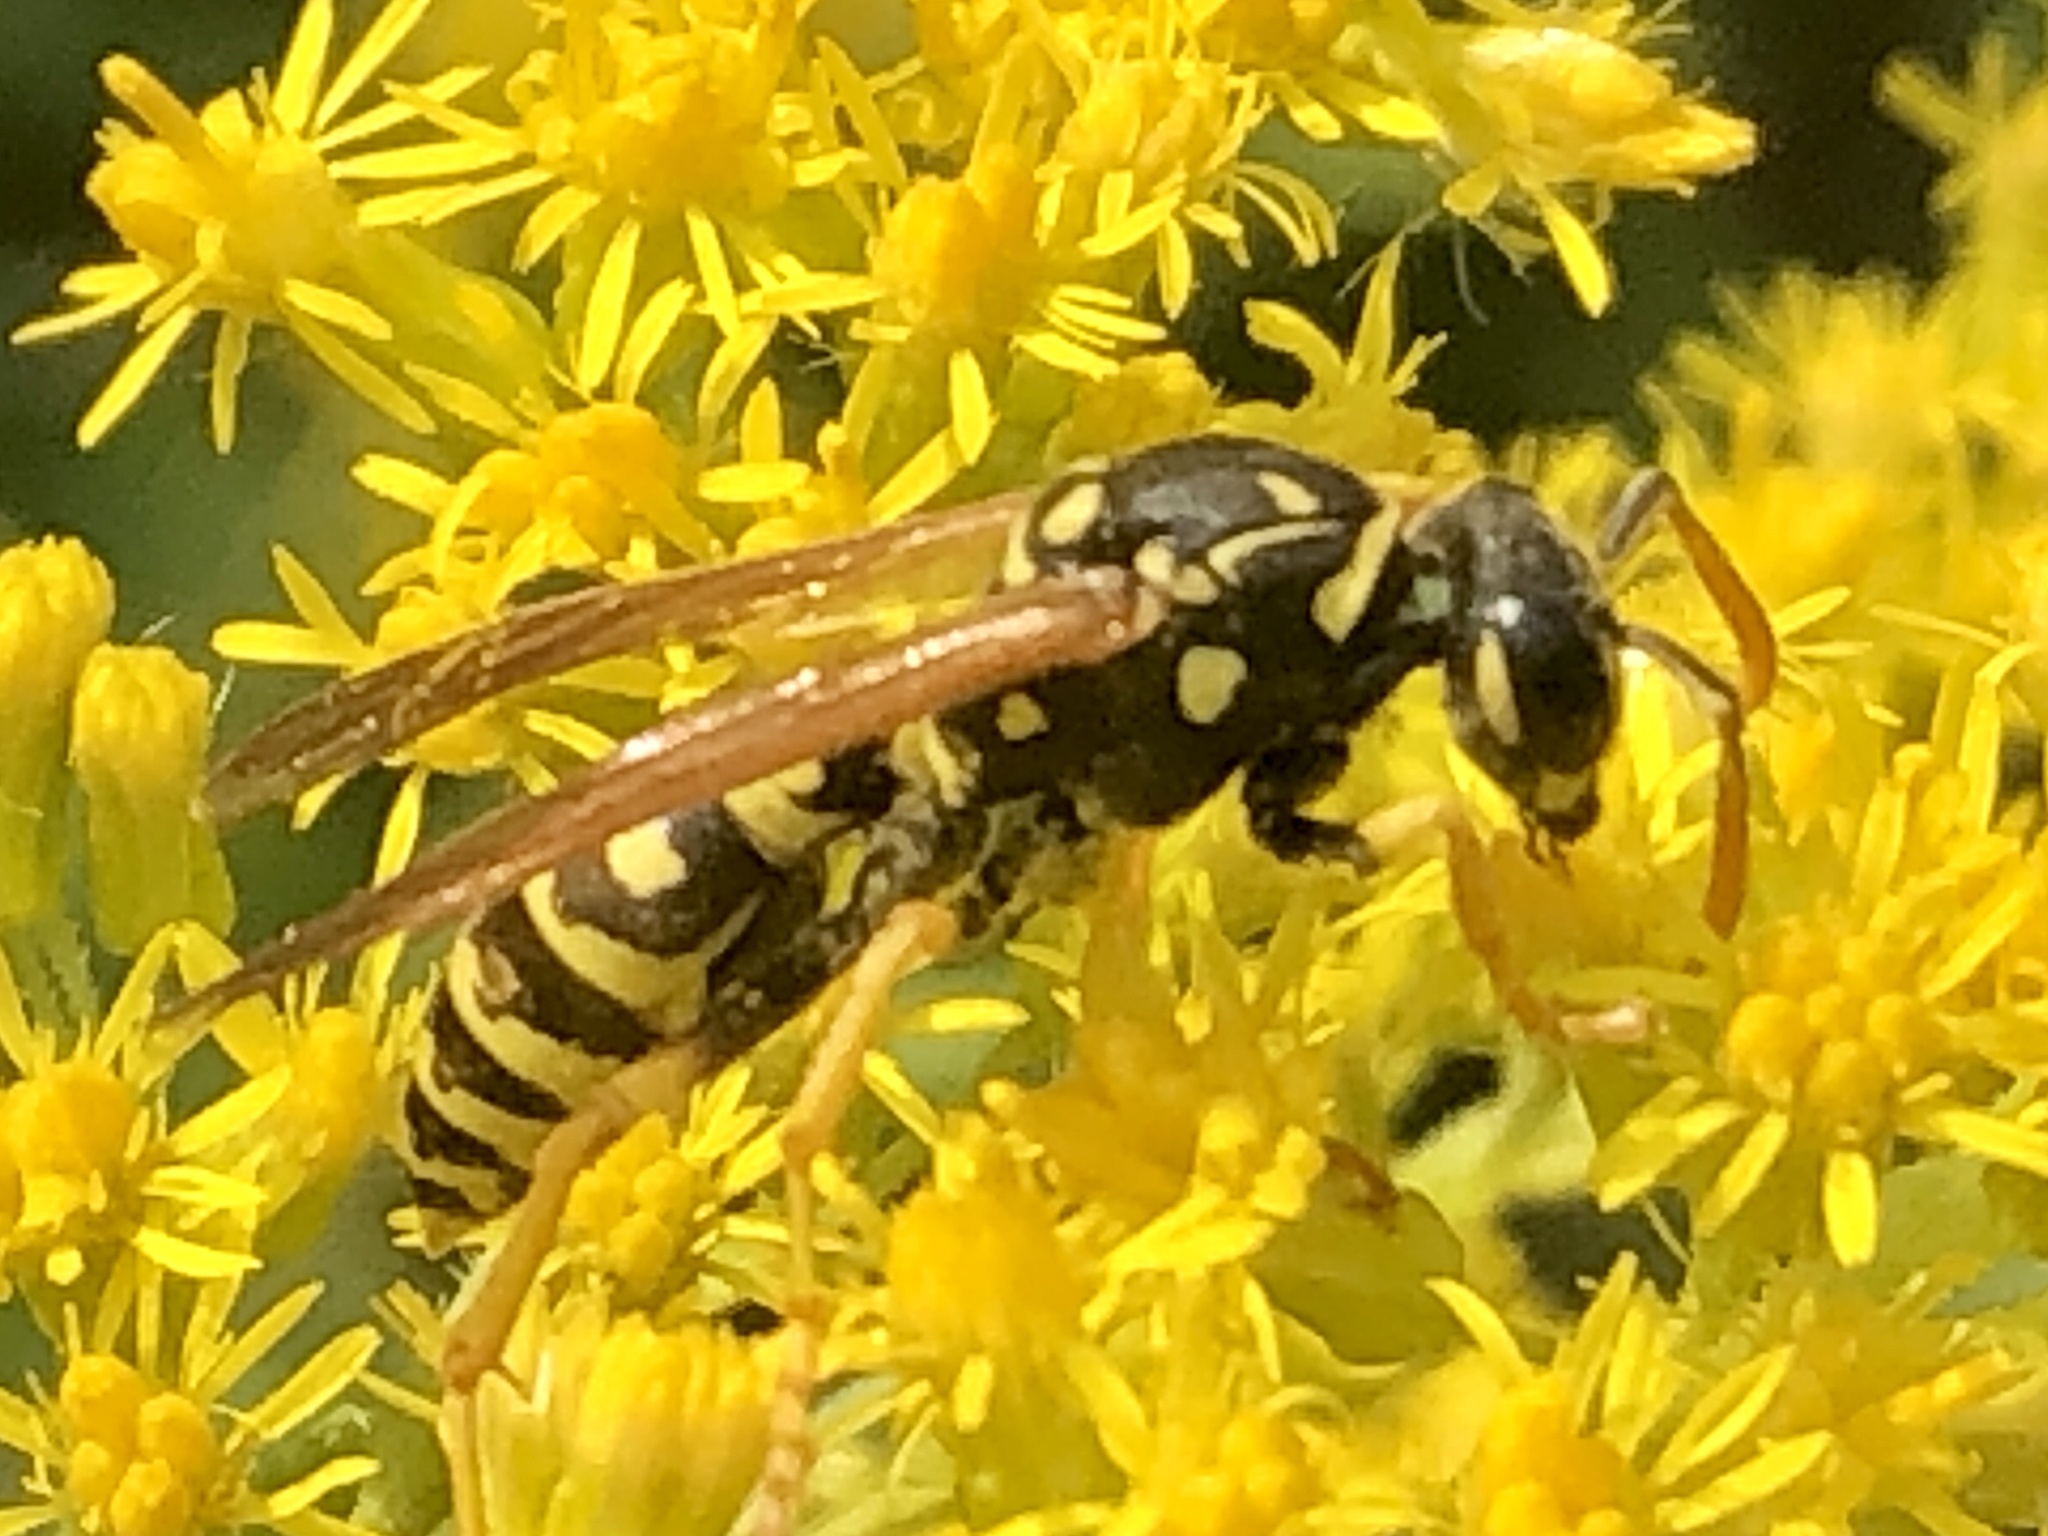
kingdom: Animalia
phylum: Arthropoda
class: Insecta
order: Hymenoptera
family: Eumenidae
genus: Polistes
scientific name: Polistes dominula
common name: Paper wasp
